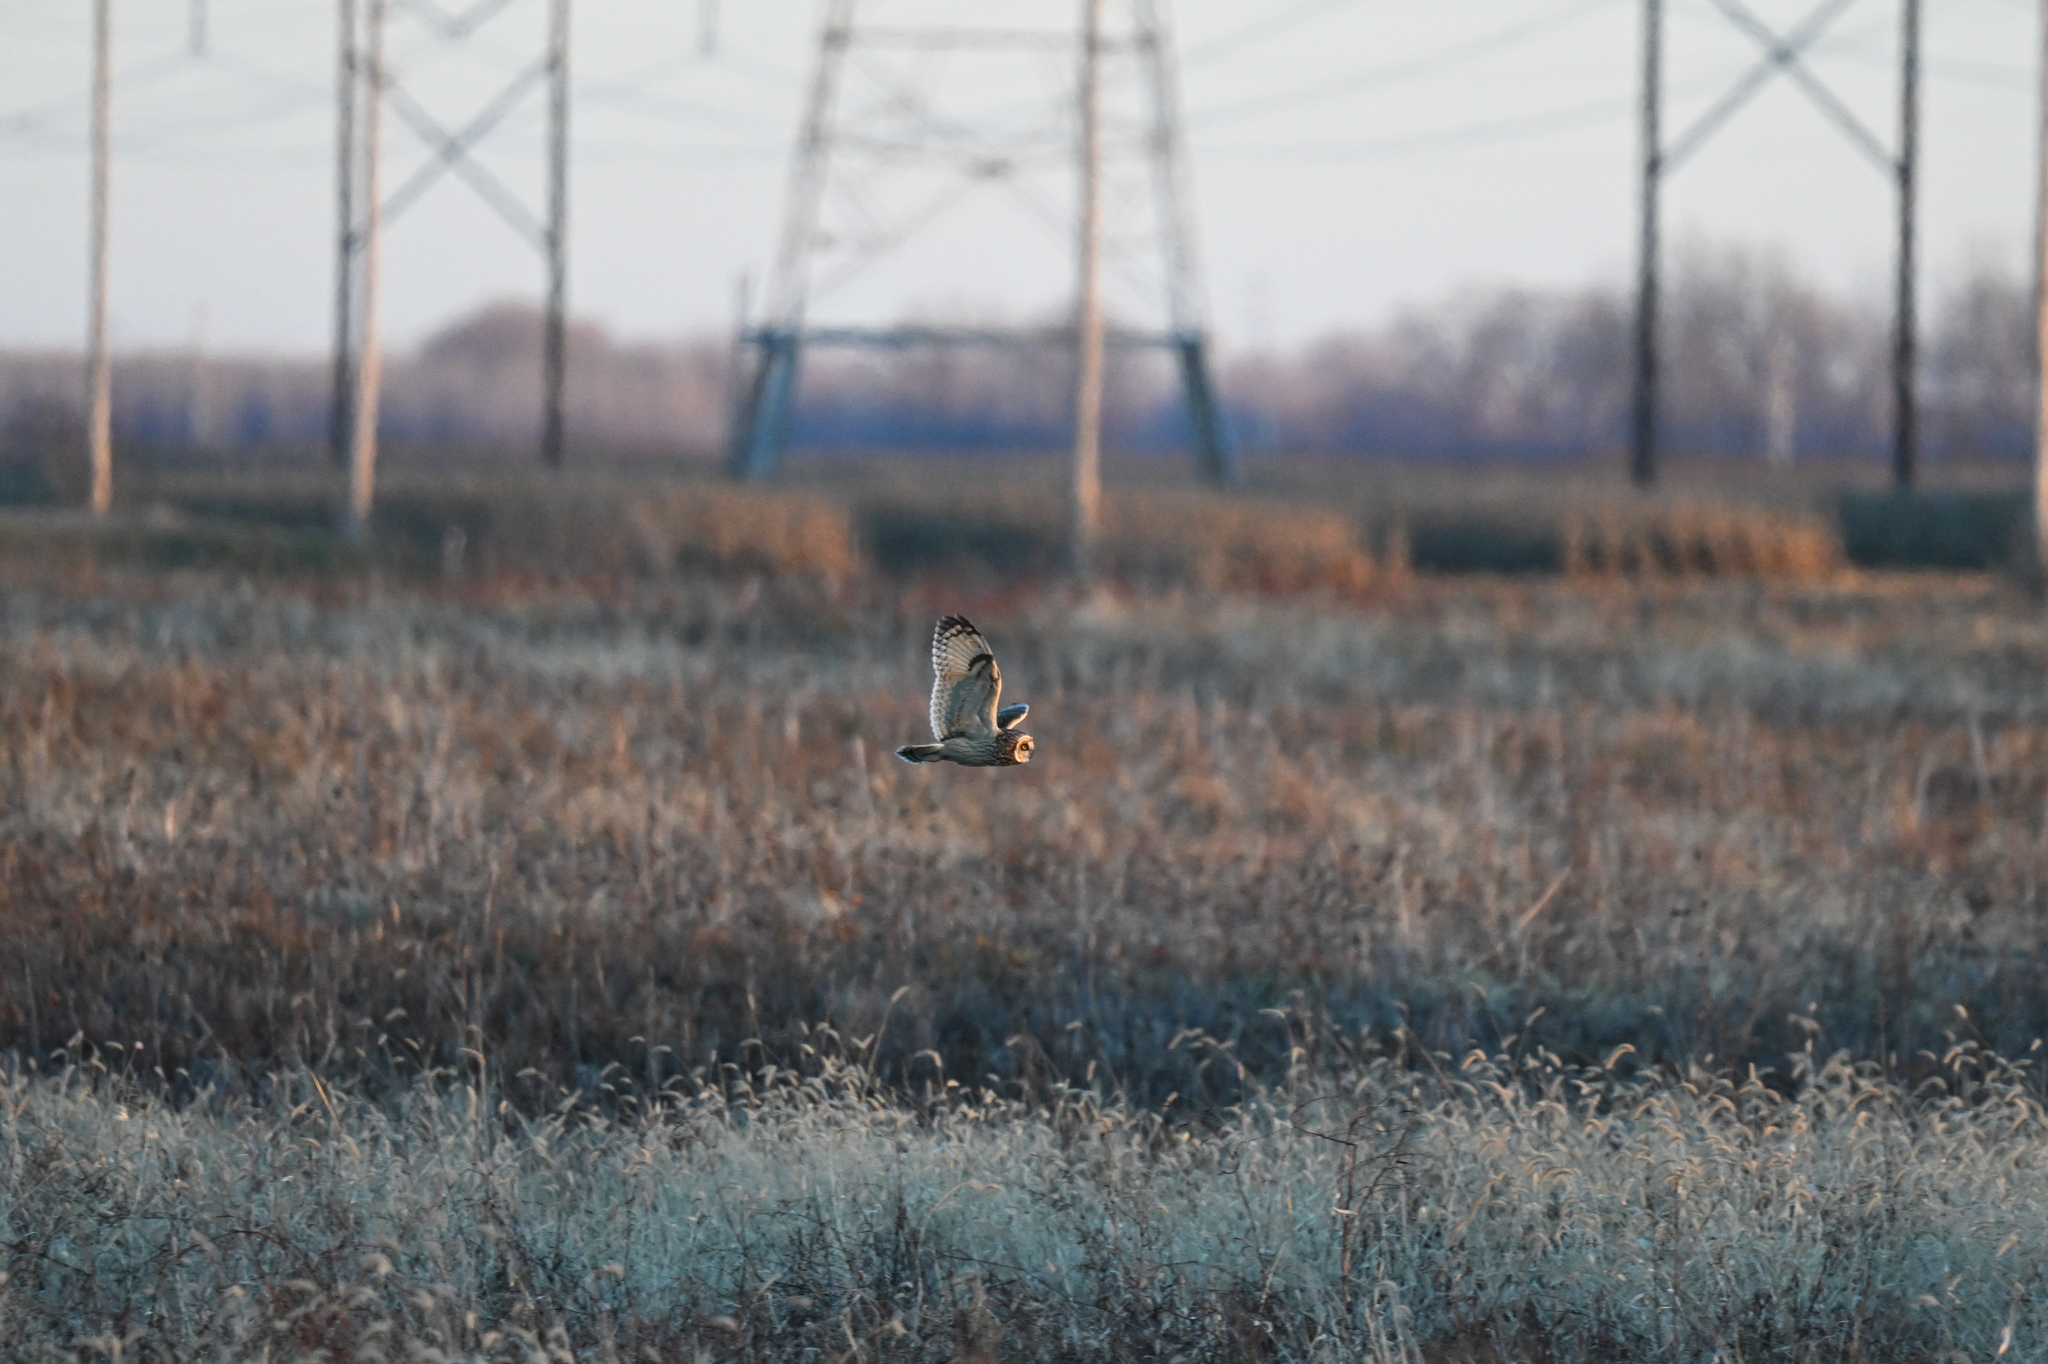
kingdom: Animalia
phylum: Chordata
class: Aves
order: Strigiformes
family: Strigidae
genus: Asio
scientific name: Asio flammeus
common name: Short-eared owl
